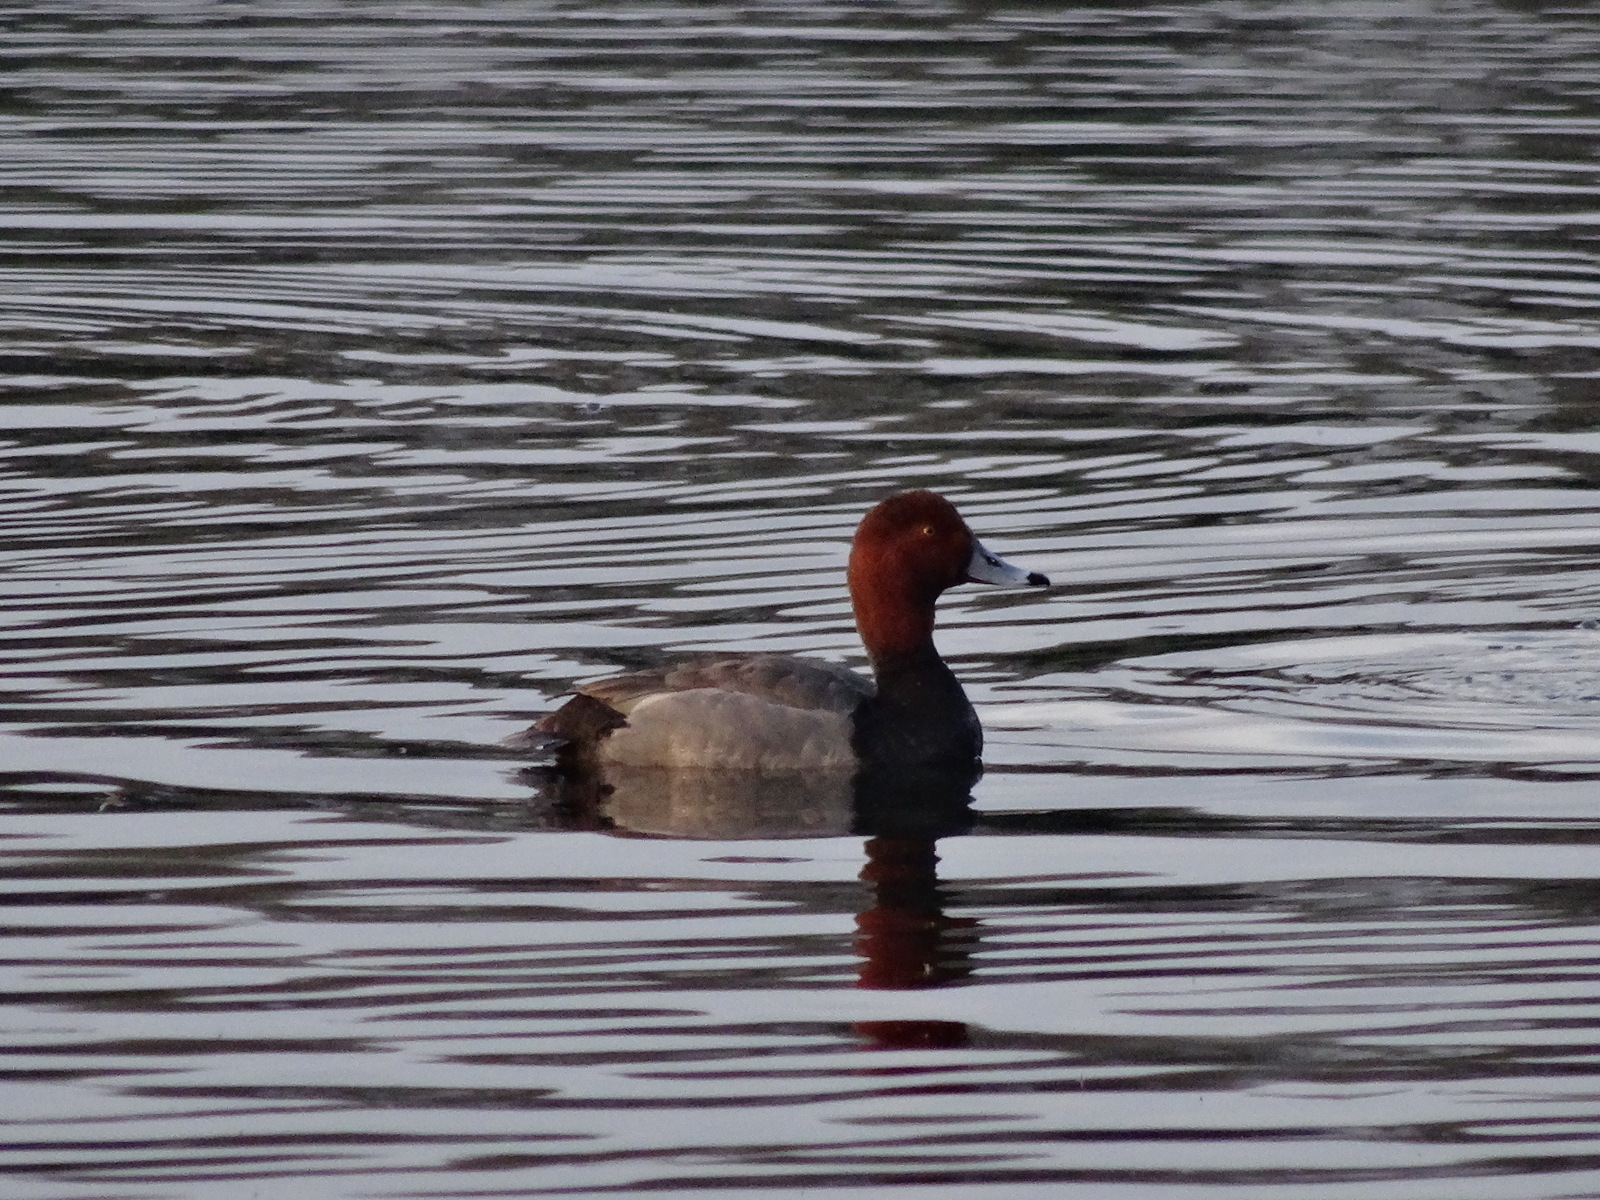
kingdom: Animalia
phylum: Chordata
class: Aves
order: Anseriformes
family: Anatidae
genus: Aythya
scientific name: Aythya americana
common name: Redhead
